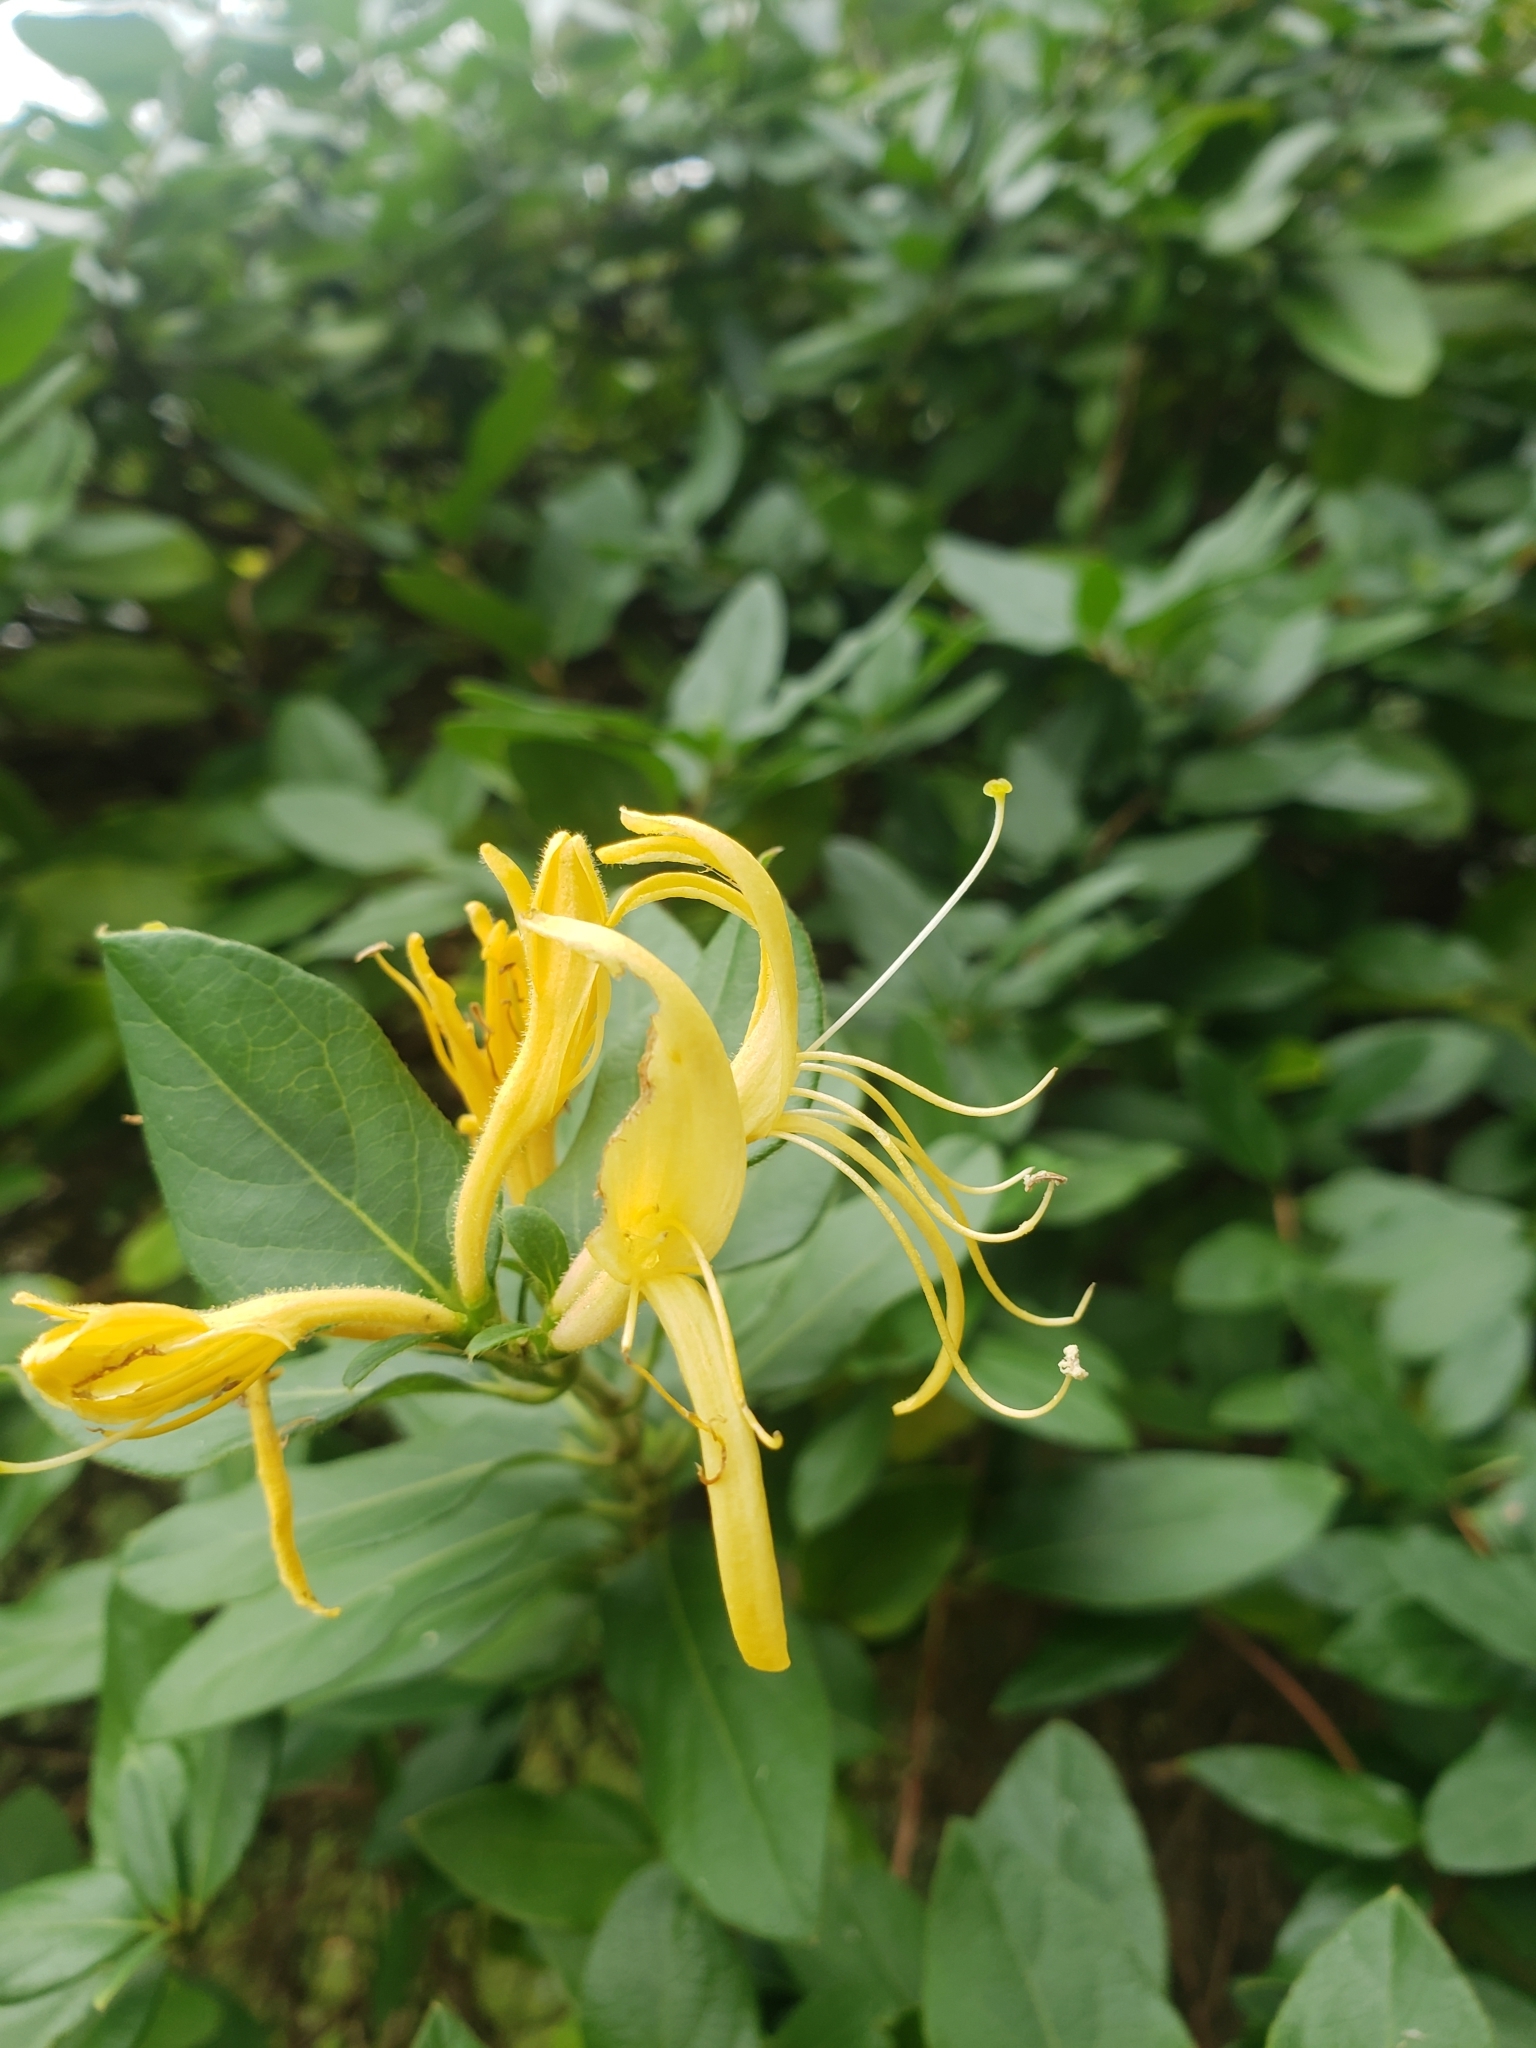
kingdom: Plantae
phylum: Tracheophyta
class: Magnoliopsida
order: Dipsacales
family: Caprifoliaceae
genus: Lonicera
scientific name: Lonicera japonica
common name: Japanese honeysuckle
